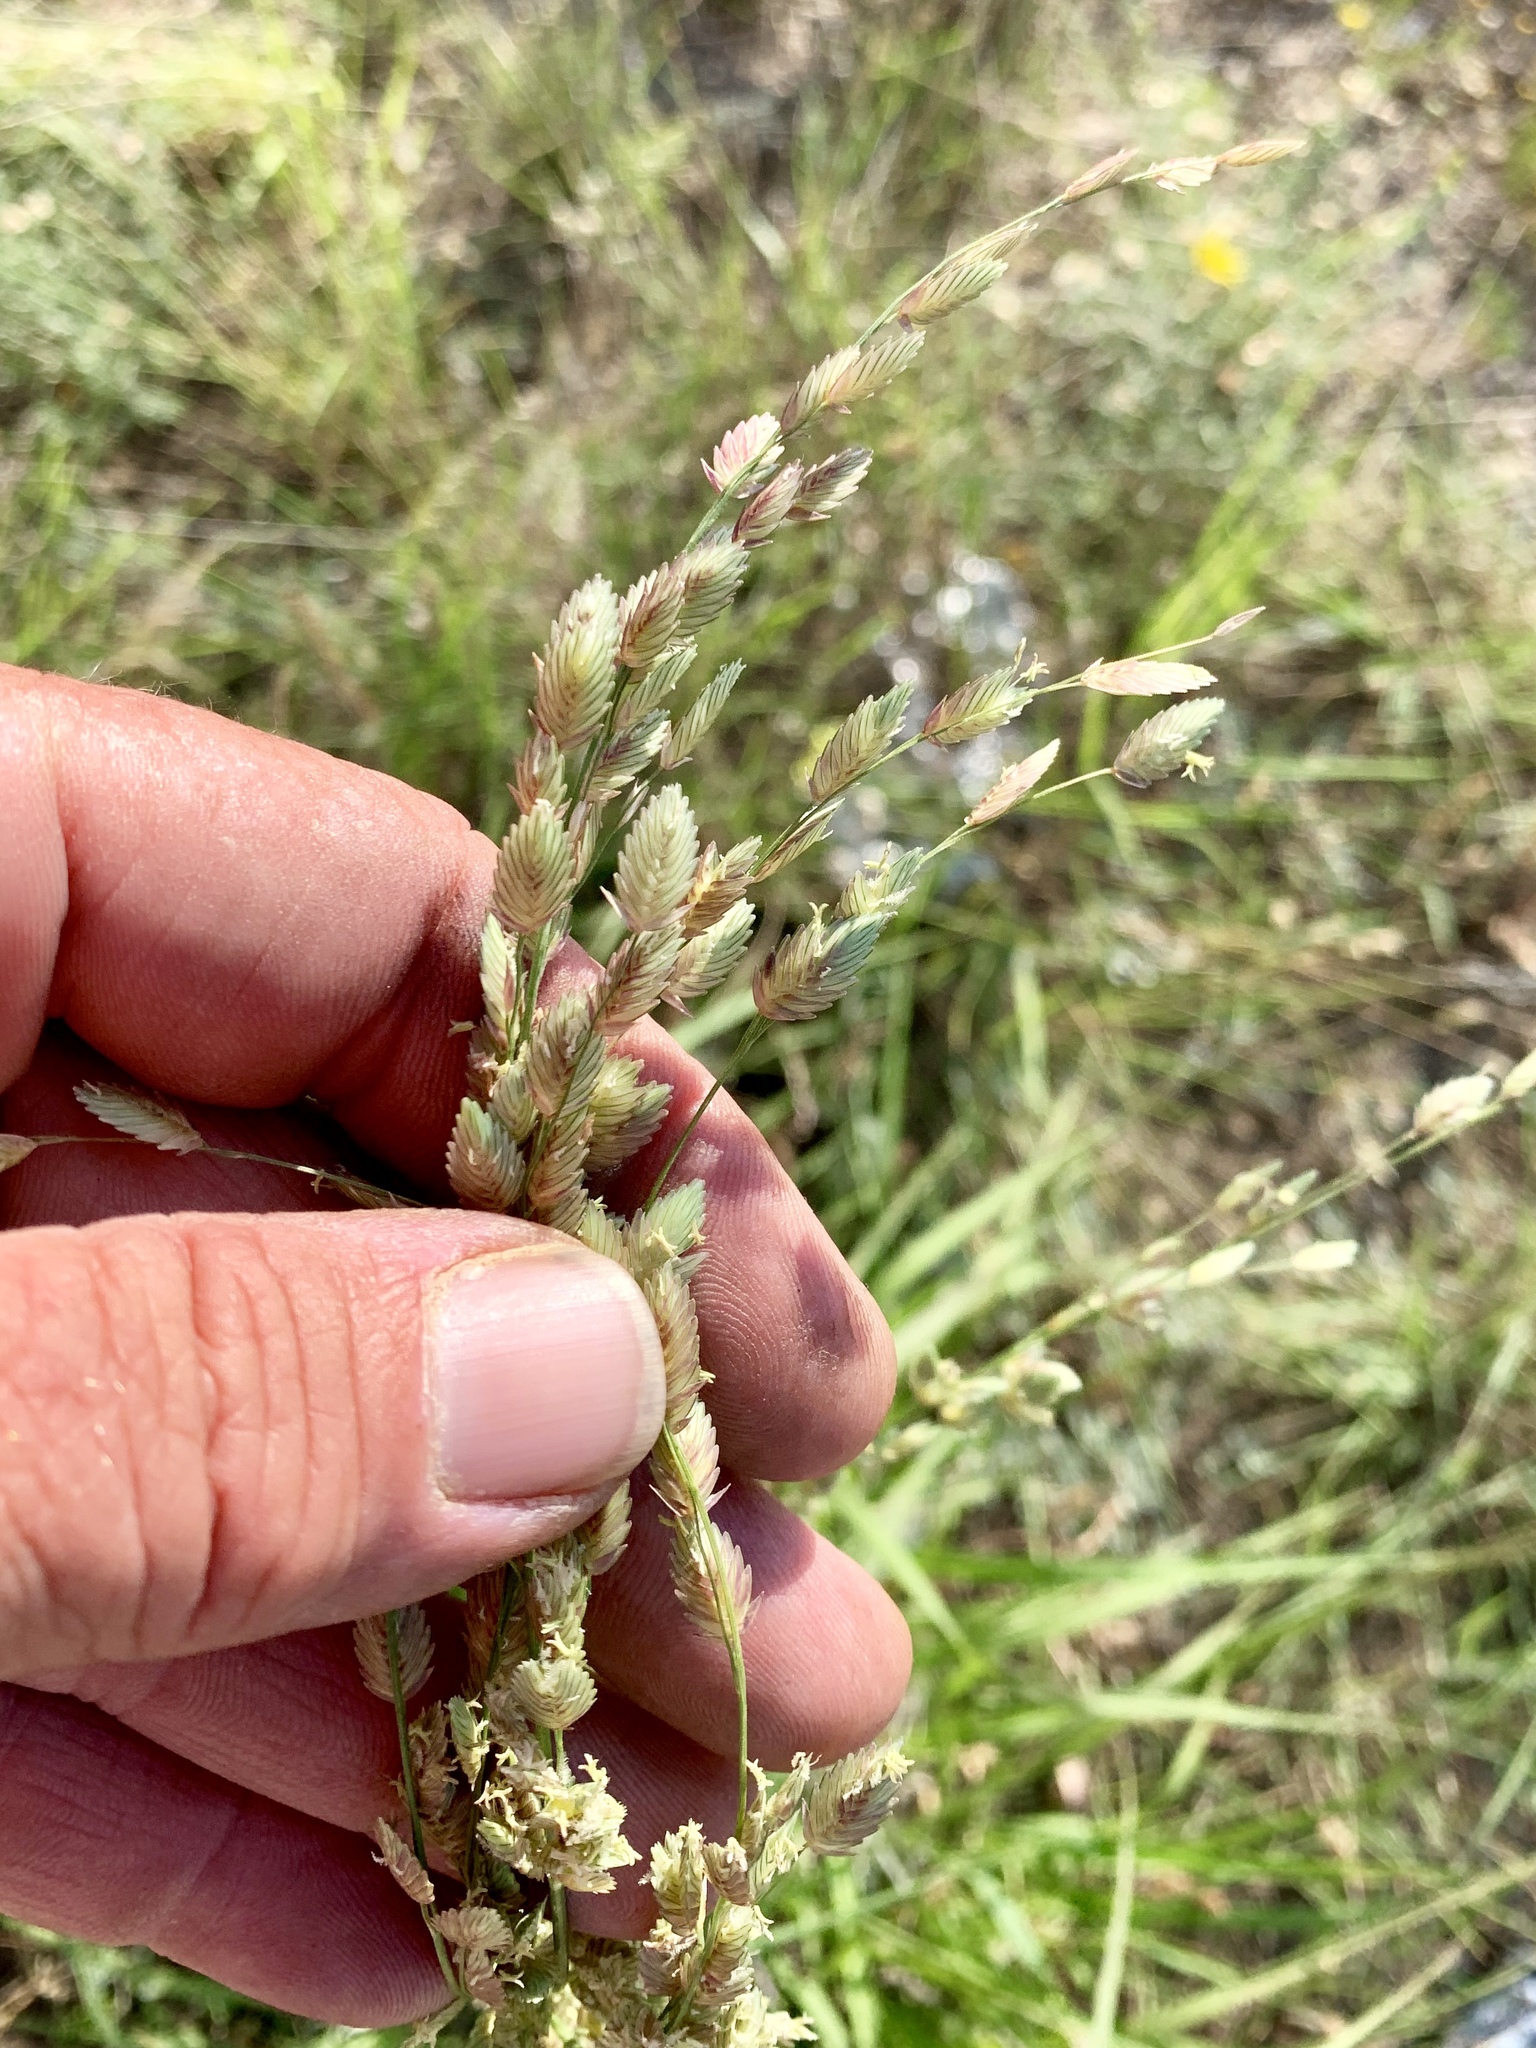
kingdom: Plantae
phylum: Tracheophyta
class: Liliopsida
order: Poales
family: Poaceae
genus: Eragrostis
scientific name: Eragrostis superba
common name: Wilman lovegrass
